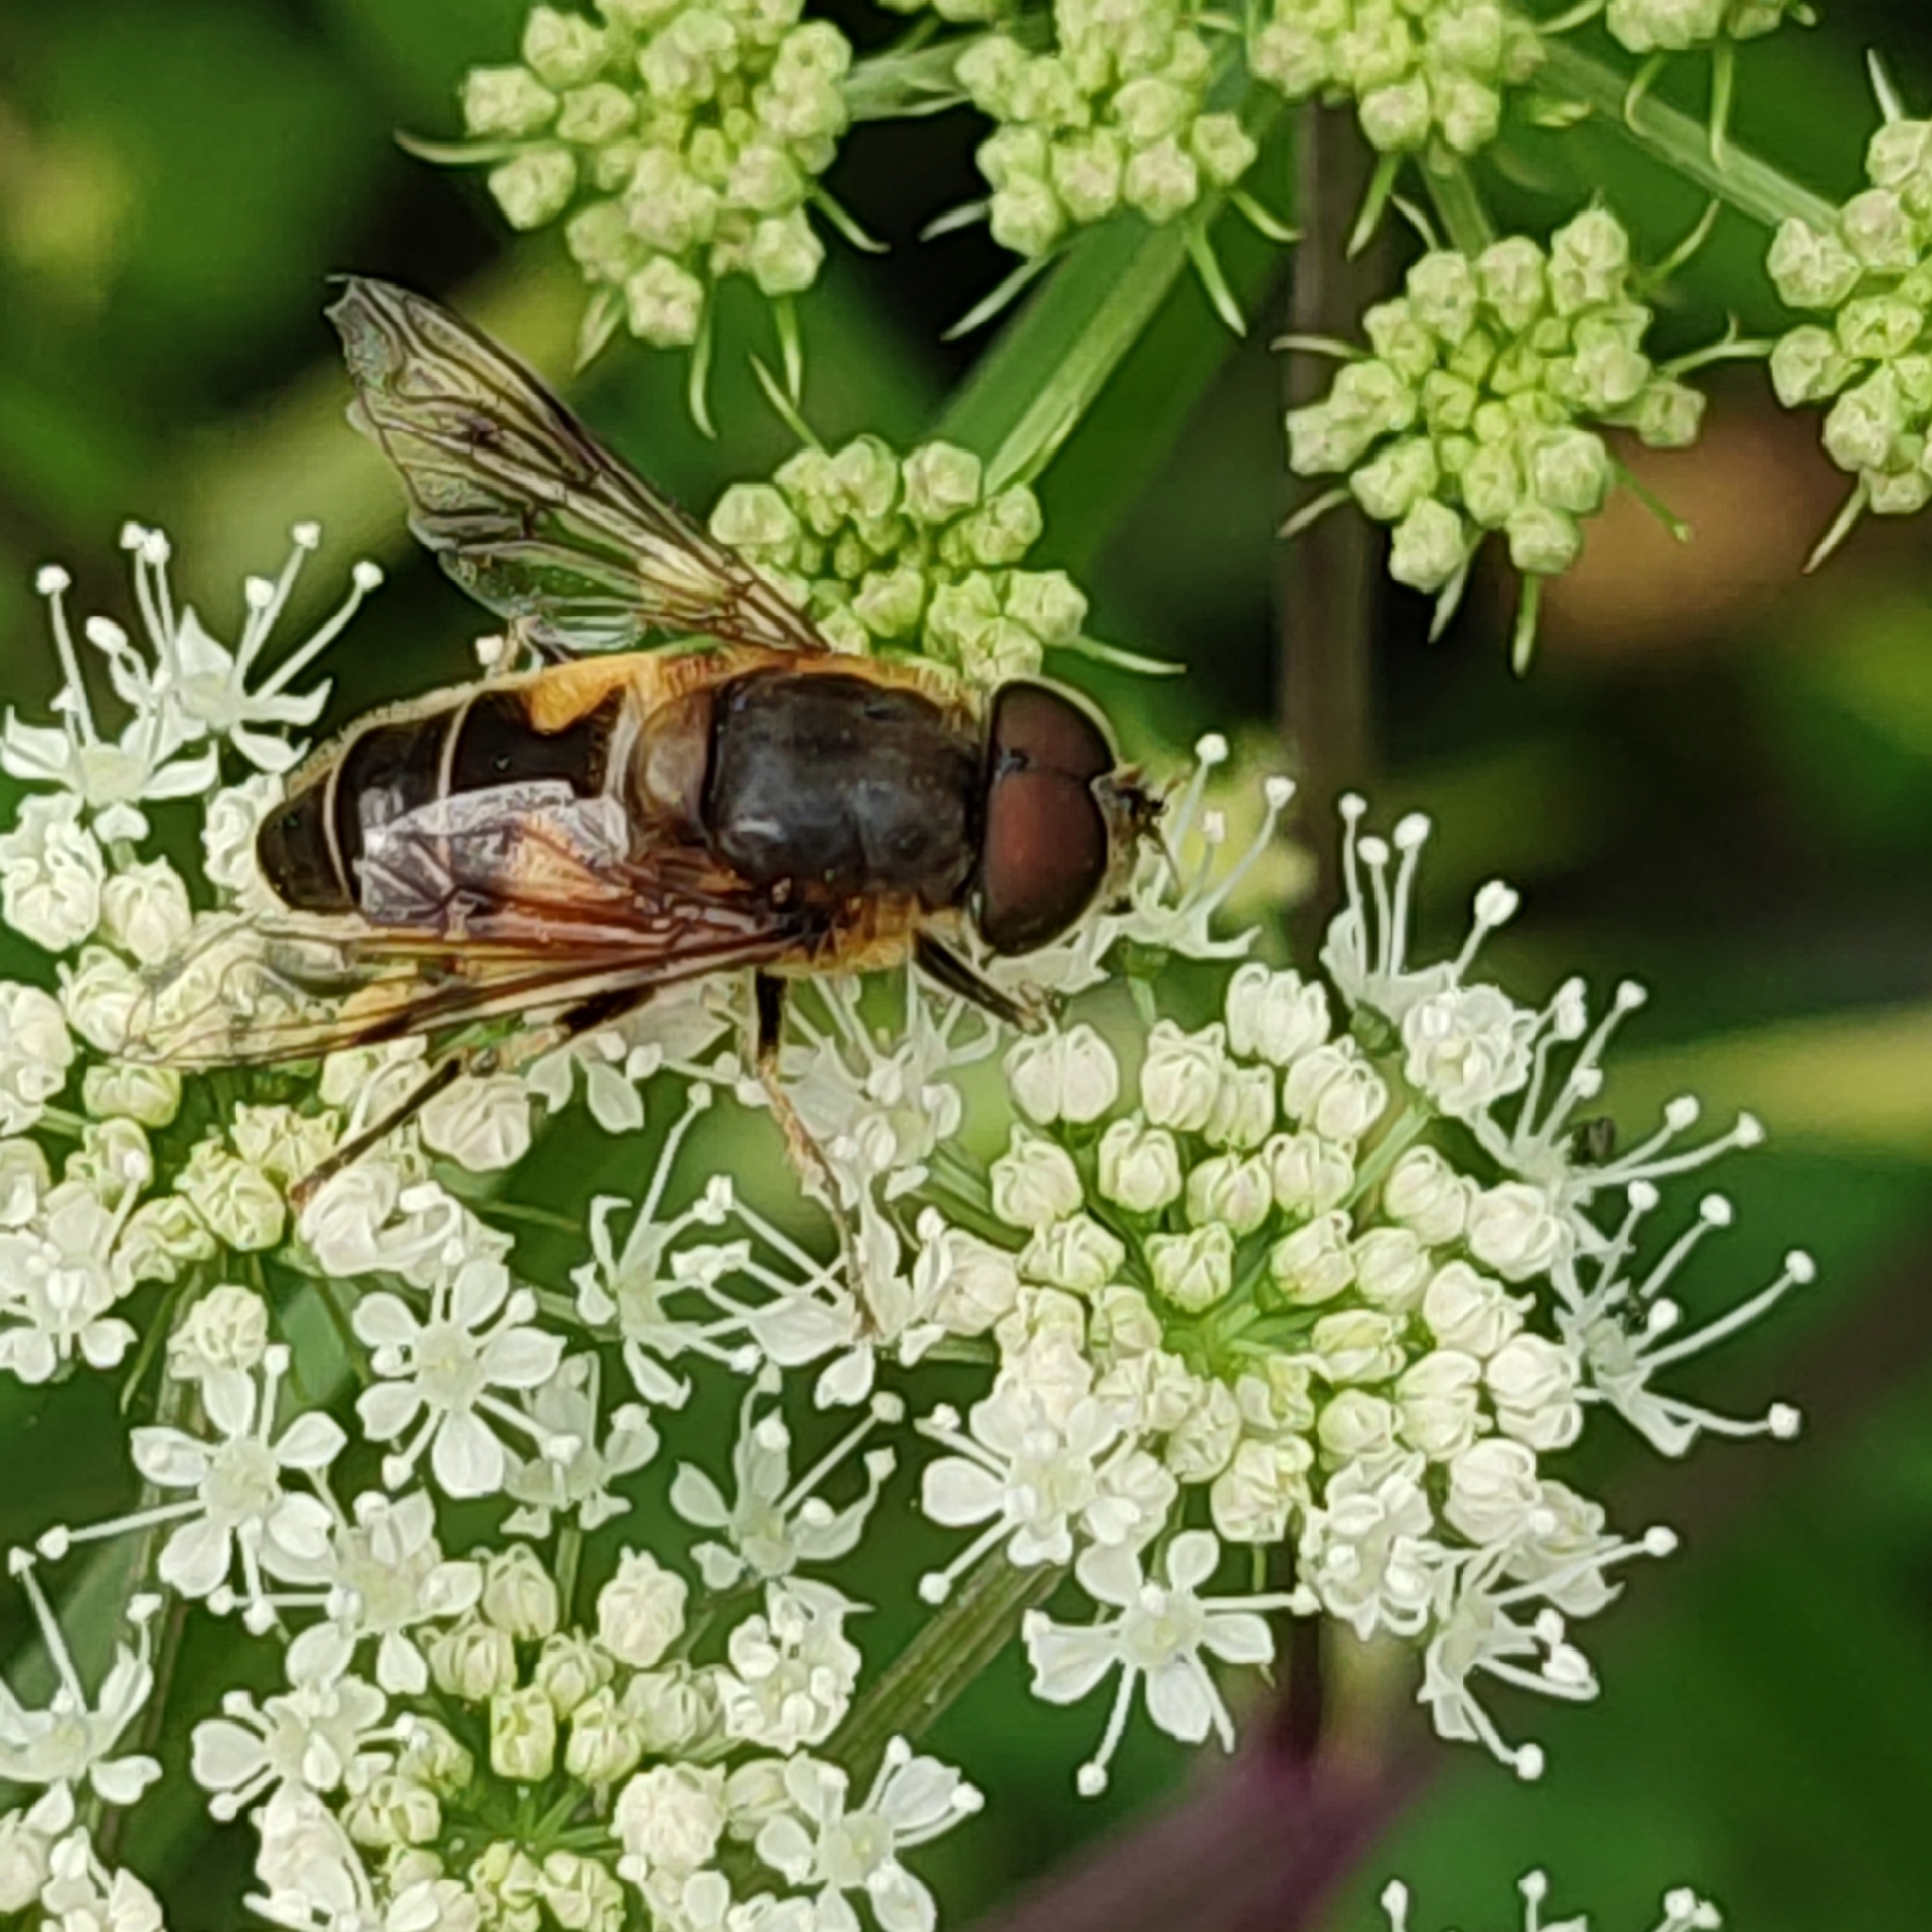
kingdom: Animalia
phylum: Arthropoda
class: Insecta
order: Diptera
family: Syrphidae
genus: Eristalis
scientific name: Eristalis pertinax
